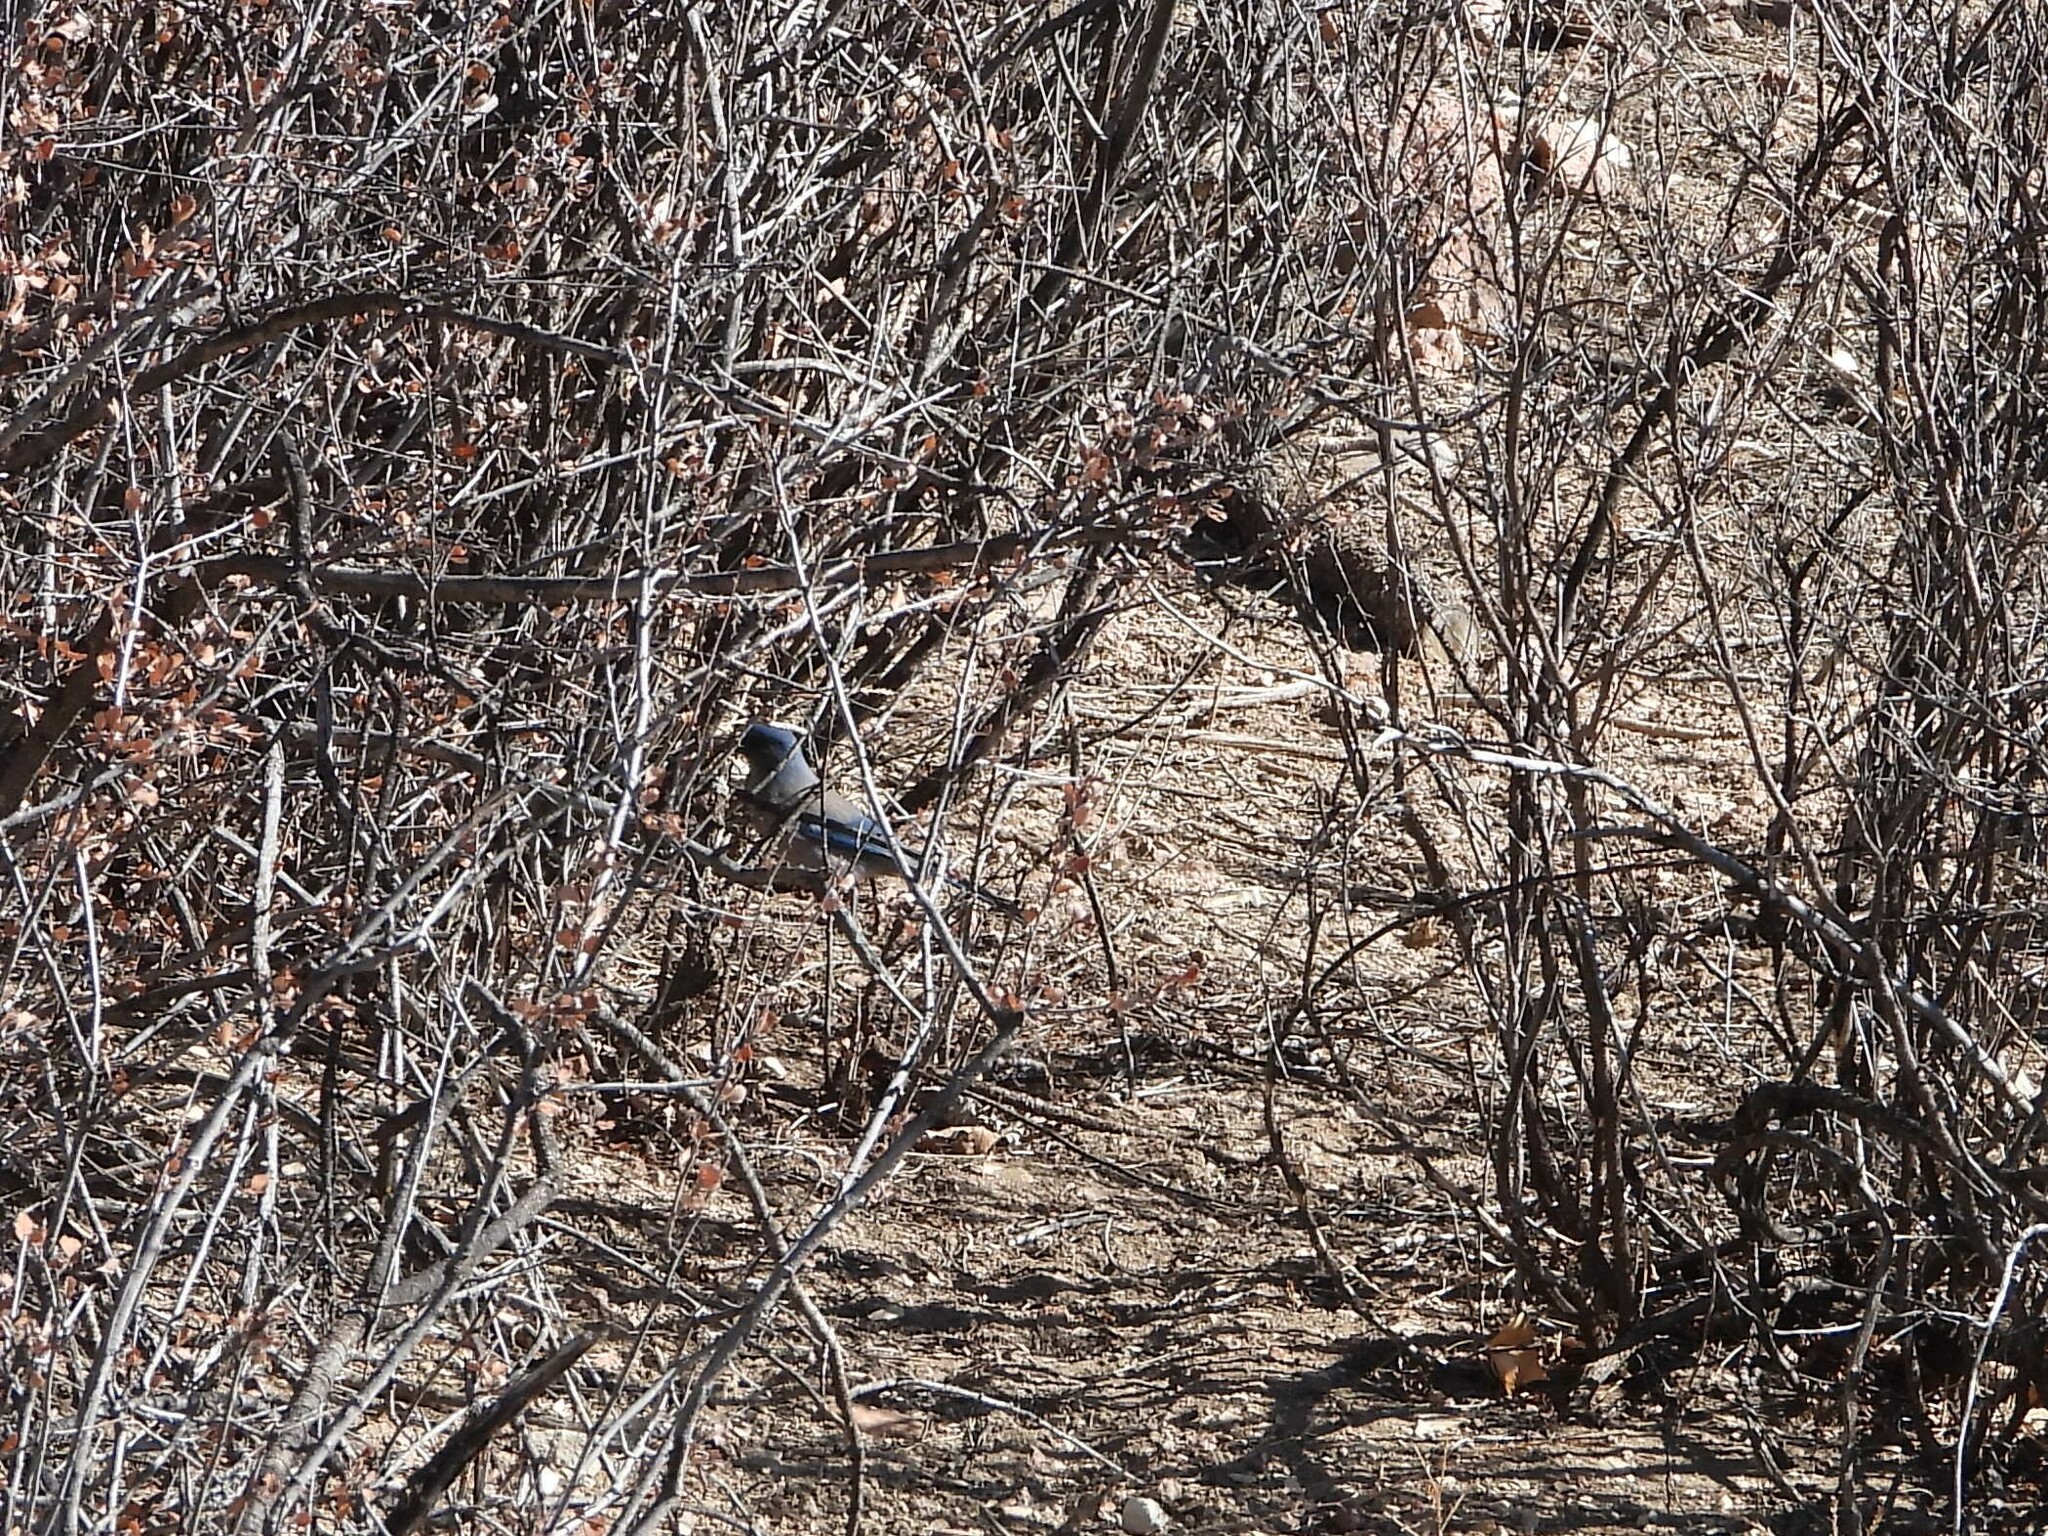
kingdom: Animalia
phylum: Chordata
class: Aves
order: Passeriformes
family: Corvidae
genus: Aphelocoma
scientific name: Aphelocoma woodhouseii
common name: Woodhouse's scrub-jay
